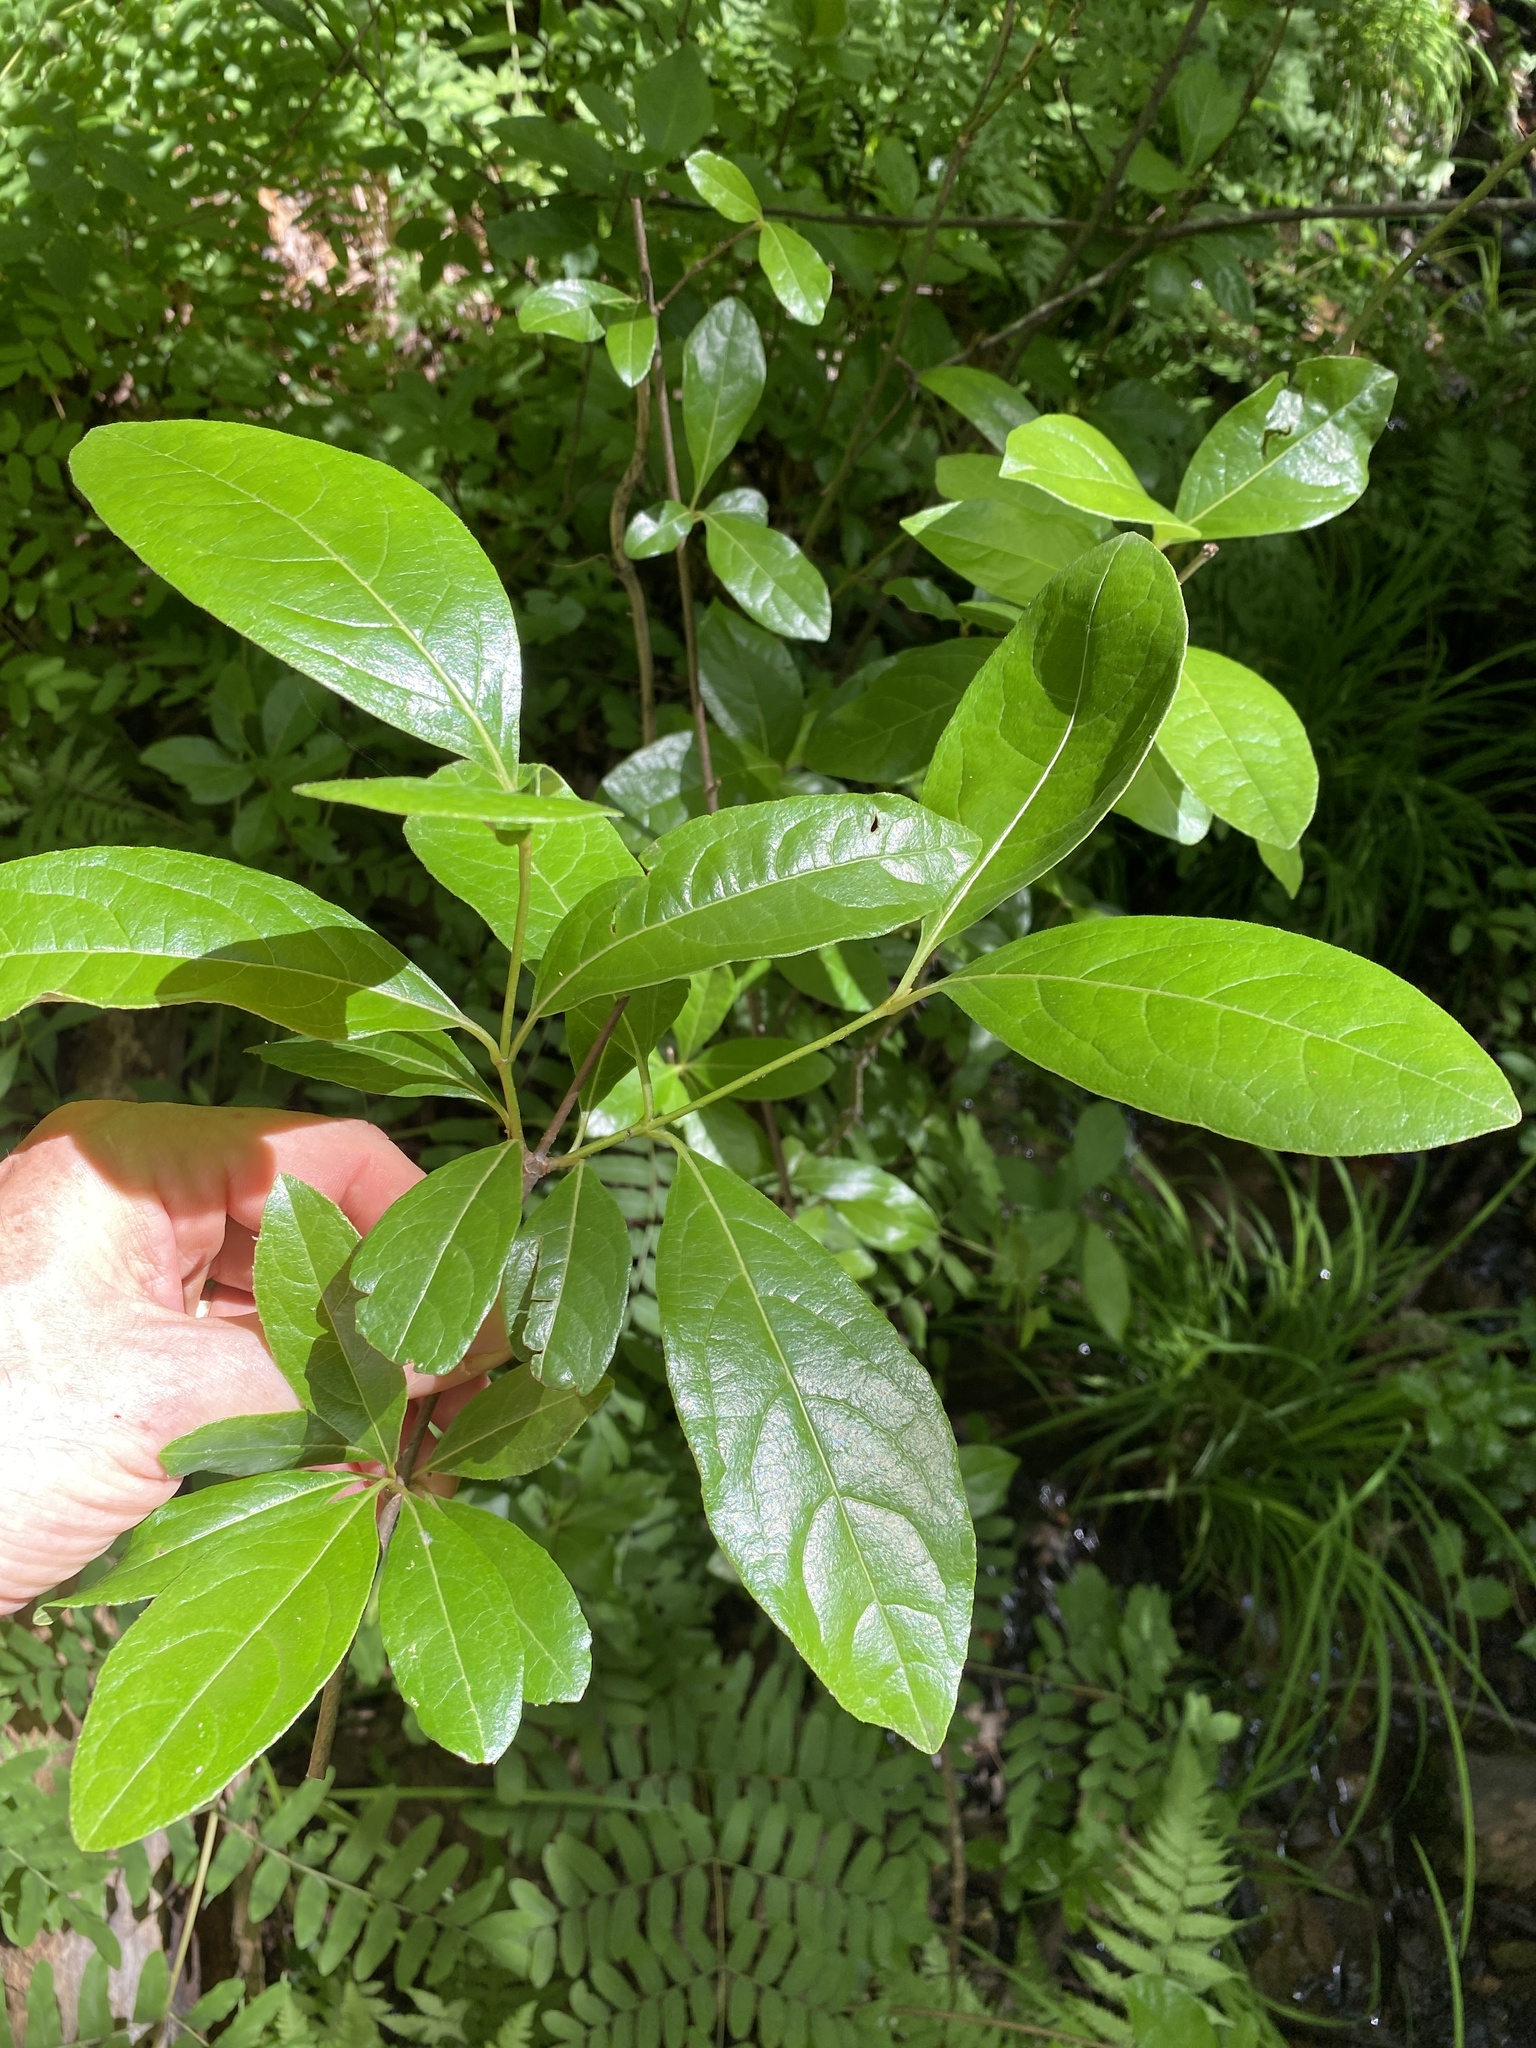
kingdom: Plantae
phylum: Tracheophyta
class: Magnoliopsida
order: Dipsacales
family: Viburnaceae
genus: Viburnum
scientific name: Viburnum nudum
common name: Possum haw
